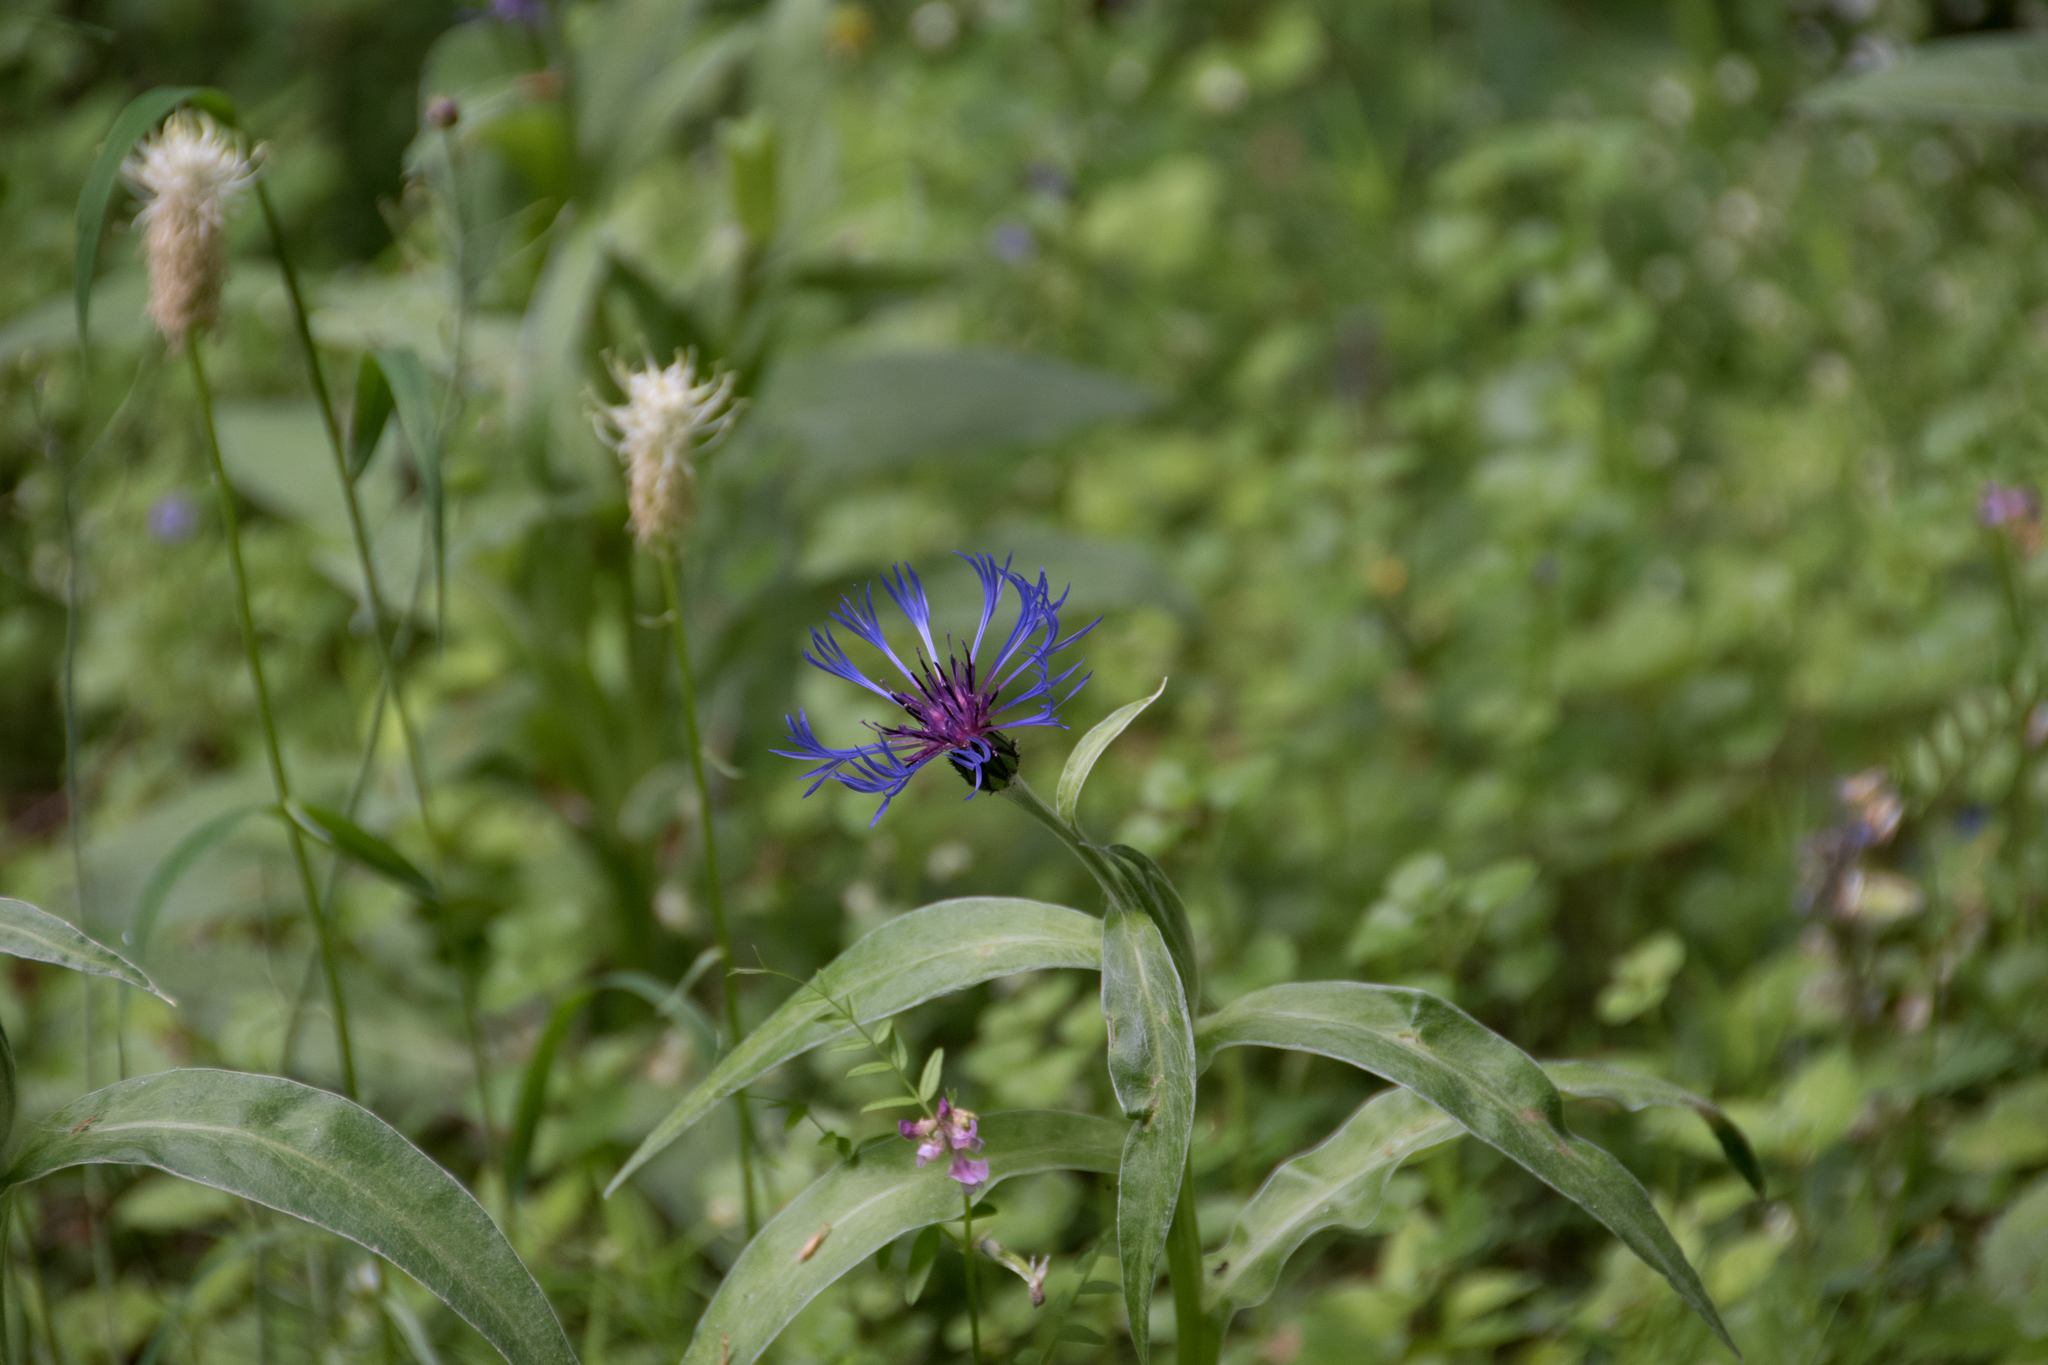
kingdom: Plantae
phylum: Tracheophyta
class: Magnoliopsida
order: Asterales
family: Asteraceae
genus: Centaurea
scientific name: Centaurea cyanus
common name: Cornflower
